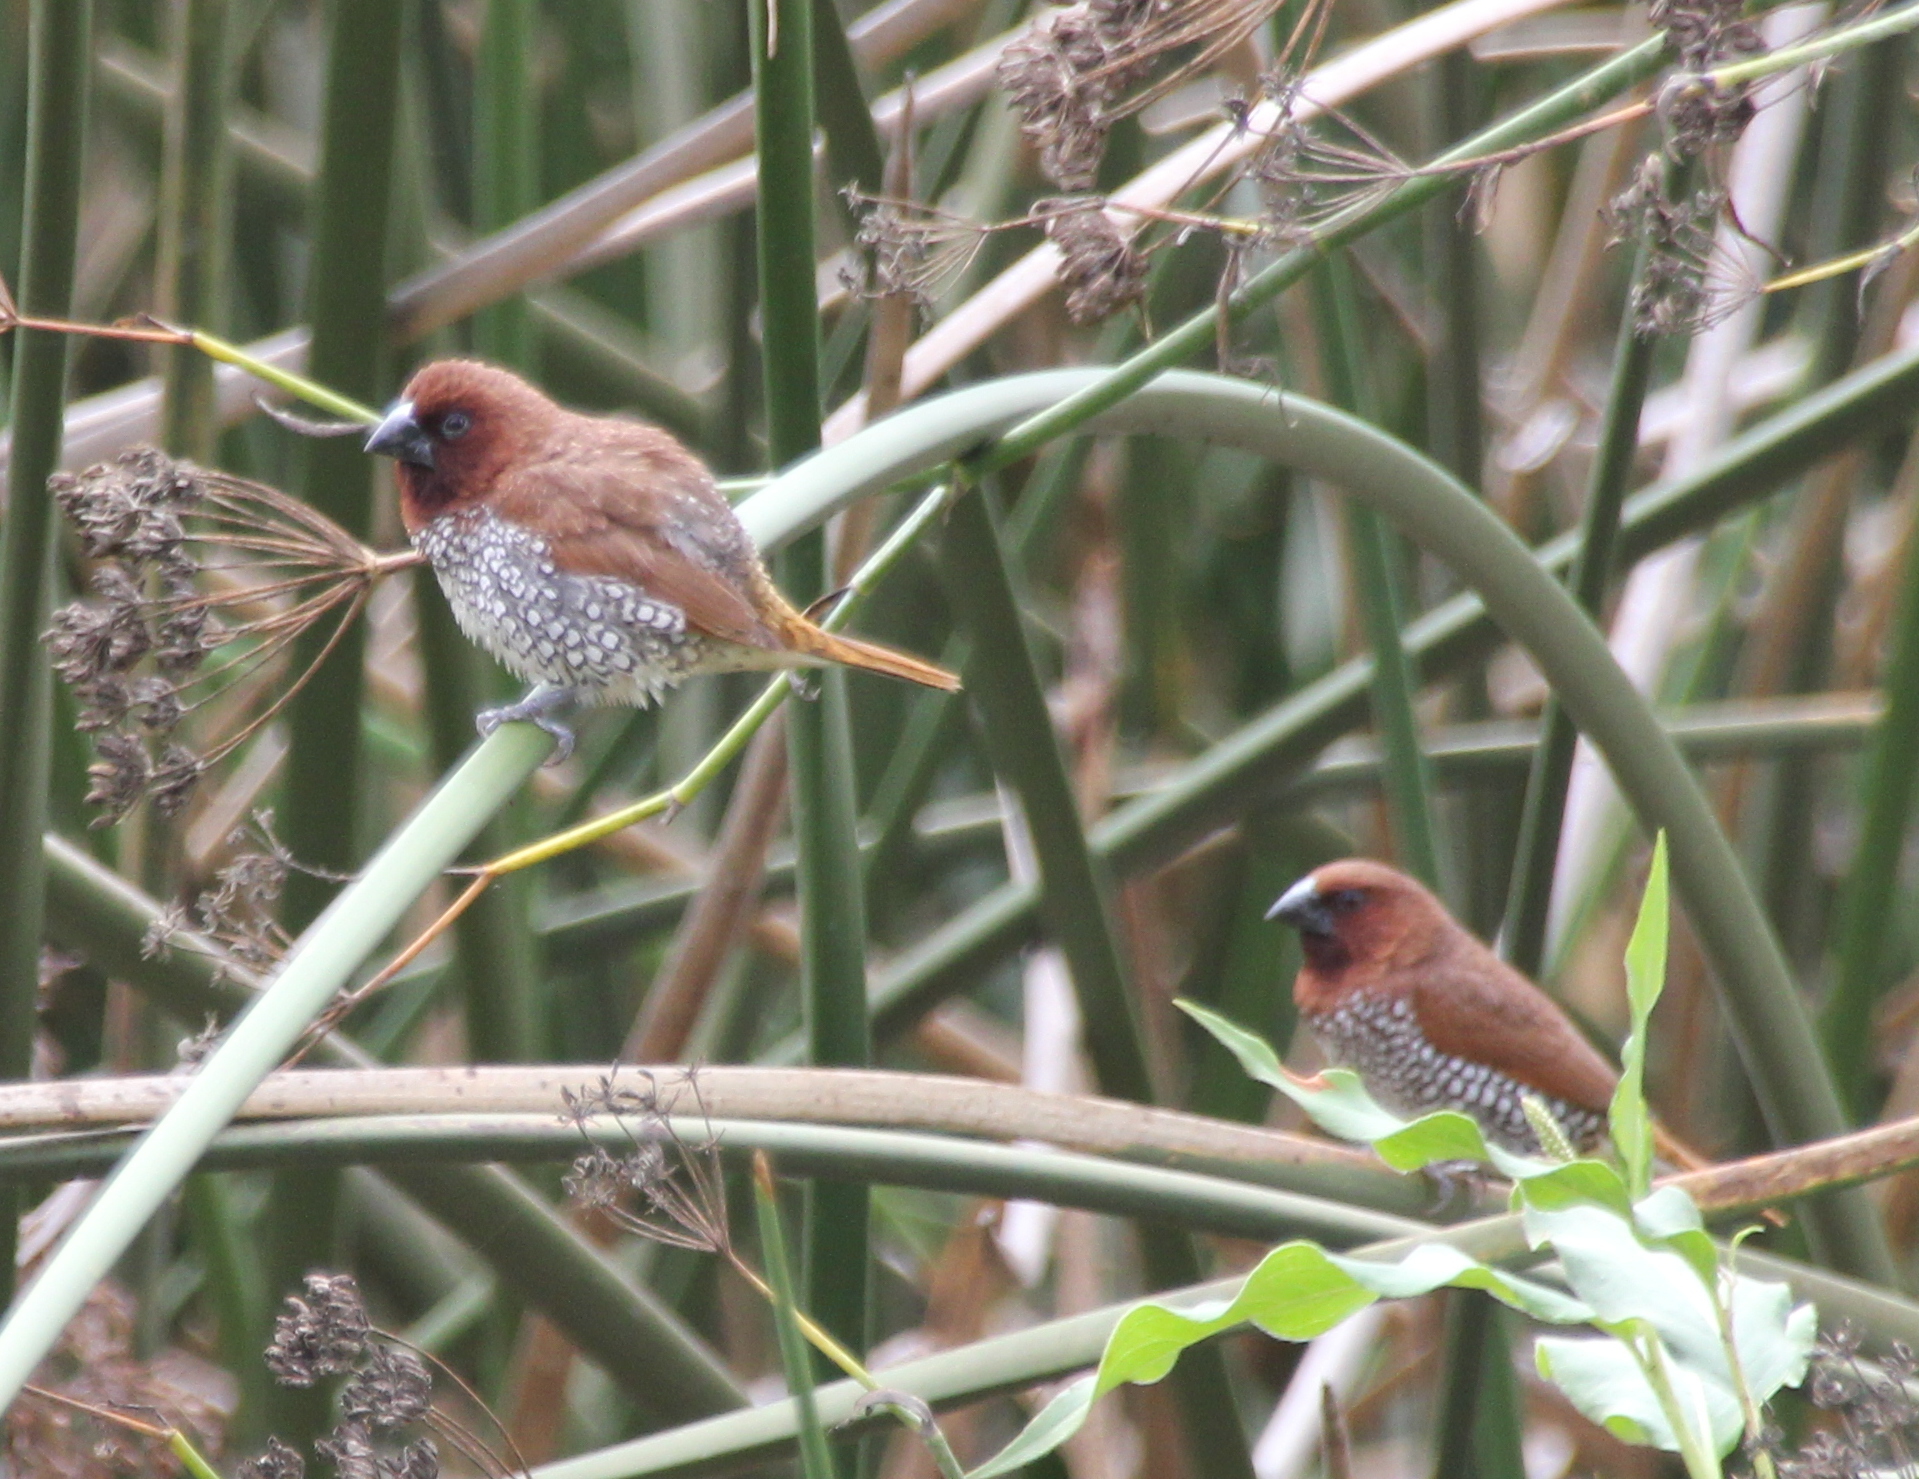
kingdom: Animalia
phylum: Chordata
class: Aves
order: Passeriformes
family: Estrildidae
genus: Lonchura
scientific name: Lonchura punctulata
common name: Scaly-breasted munia
